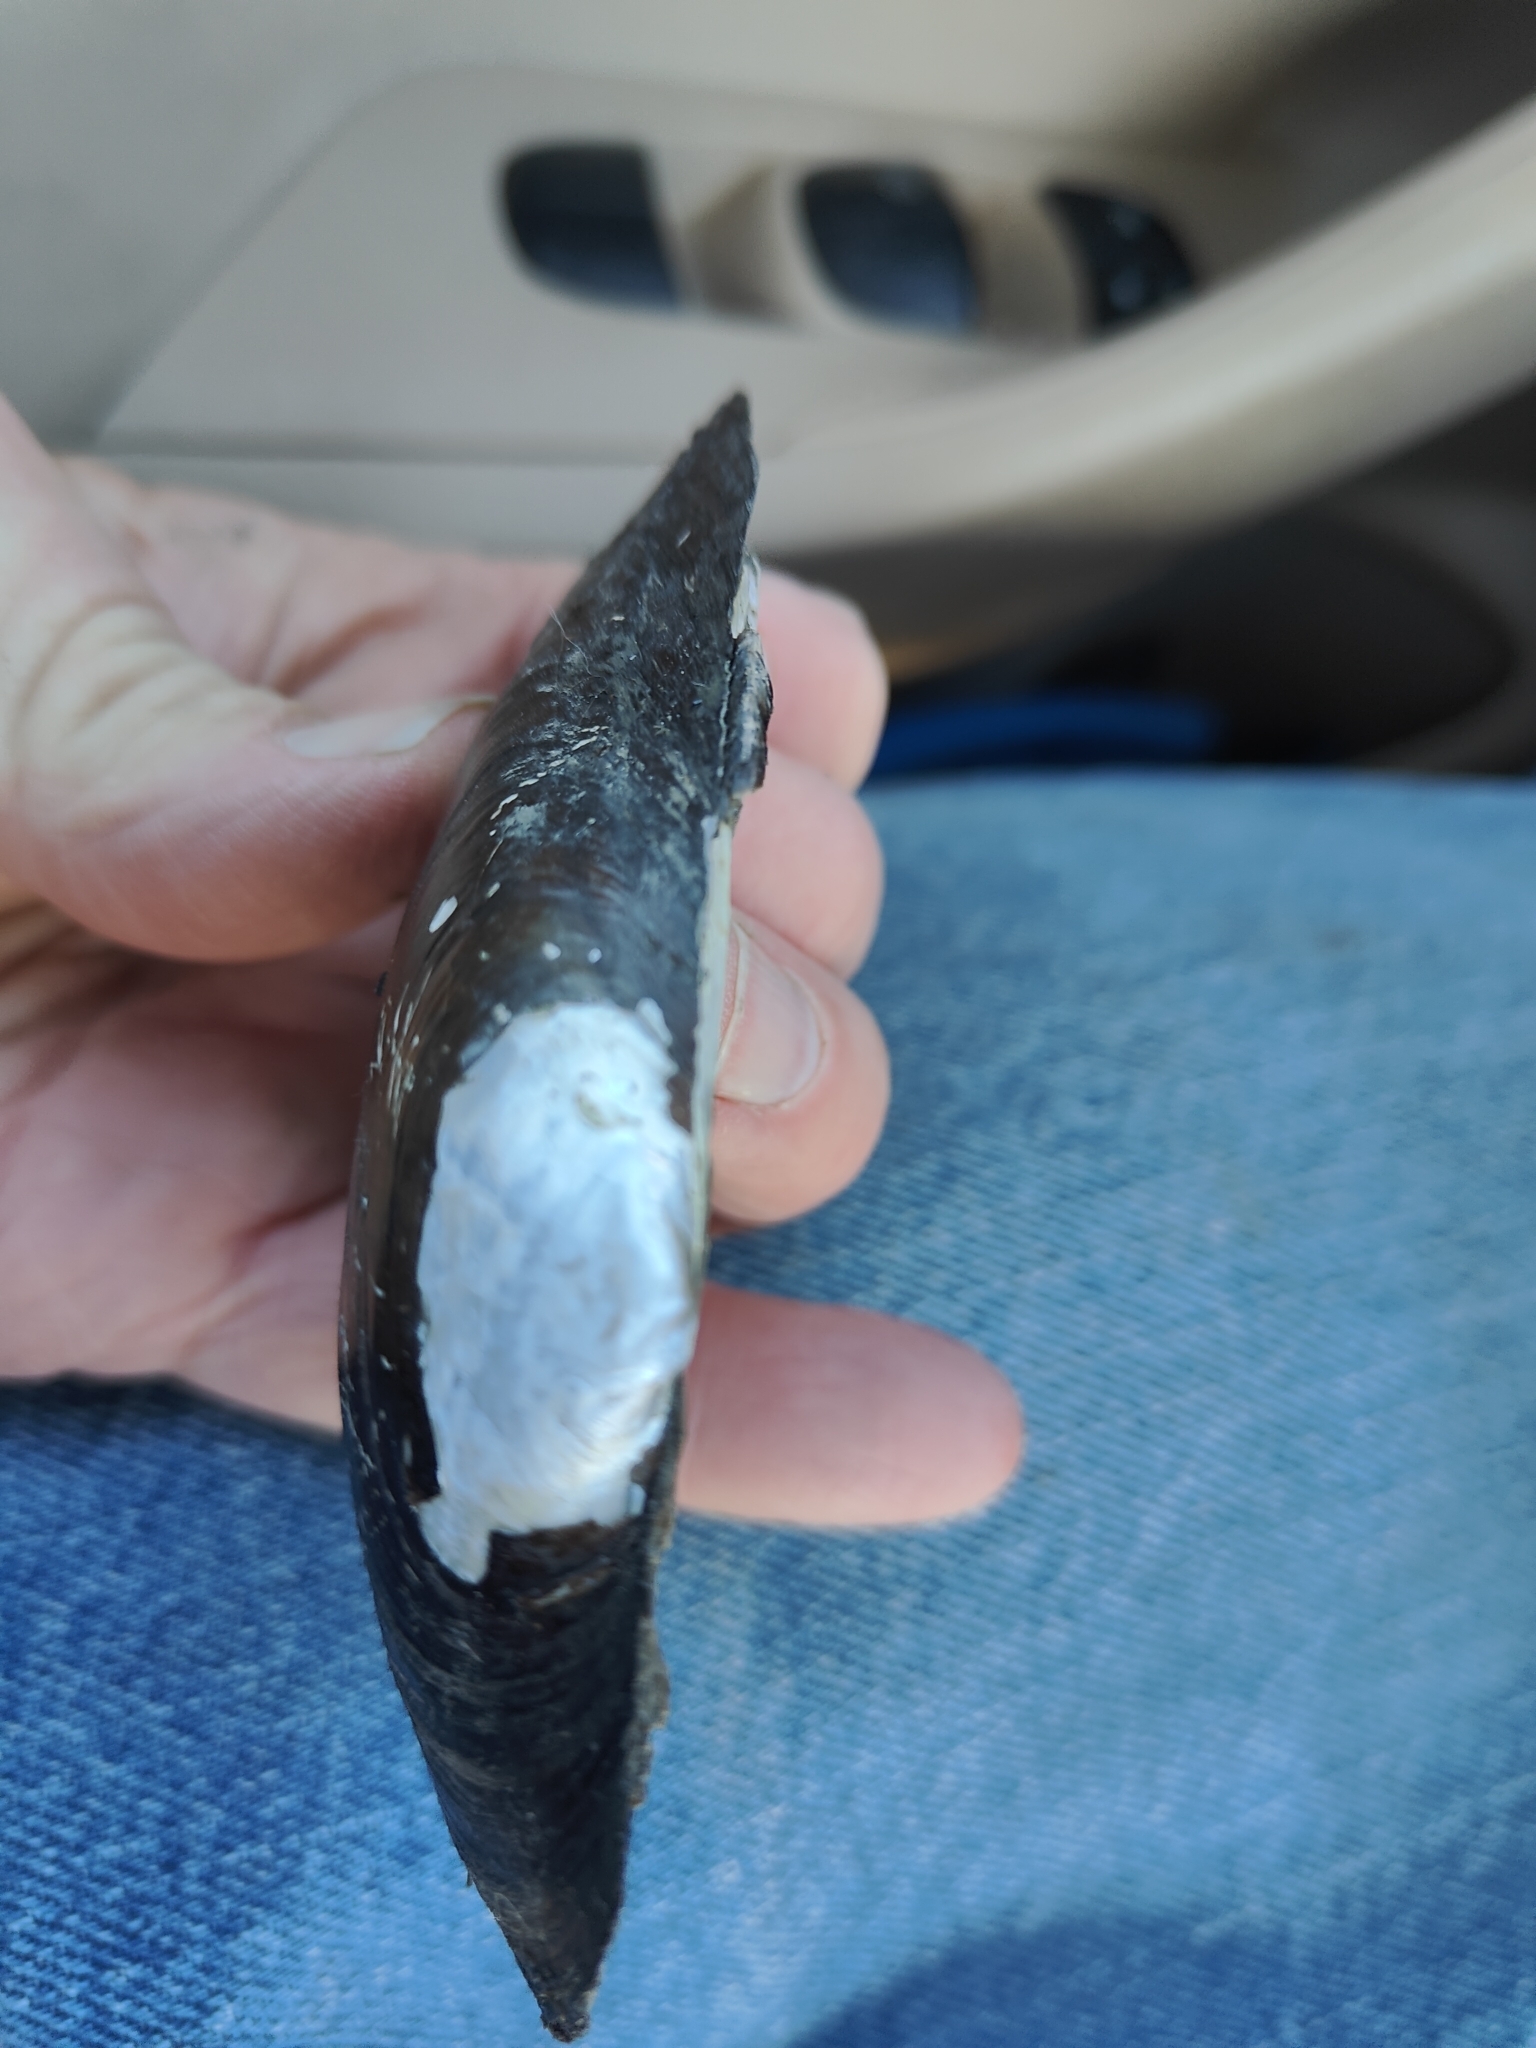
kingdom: Animalia
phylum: Mollusca
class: Bivalvia
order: Unionida
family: Unionidae
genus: Uniomerus
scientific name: Uniomerus tetralasmus
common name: Pondhorn
